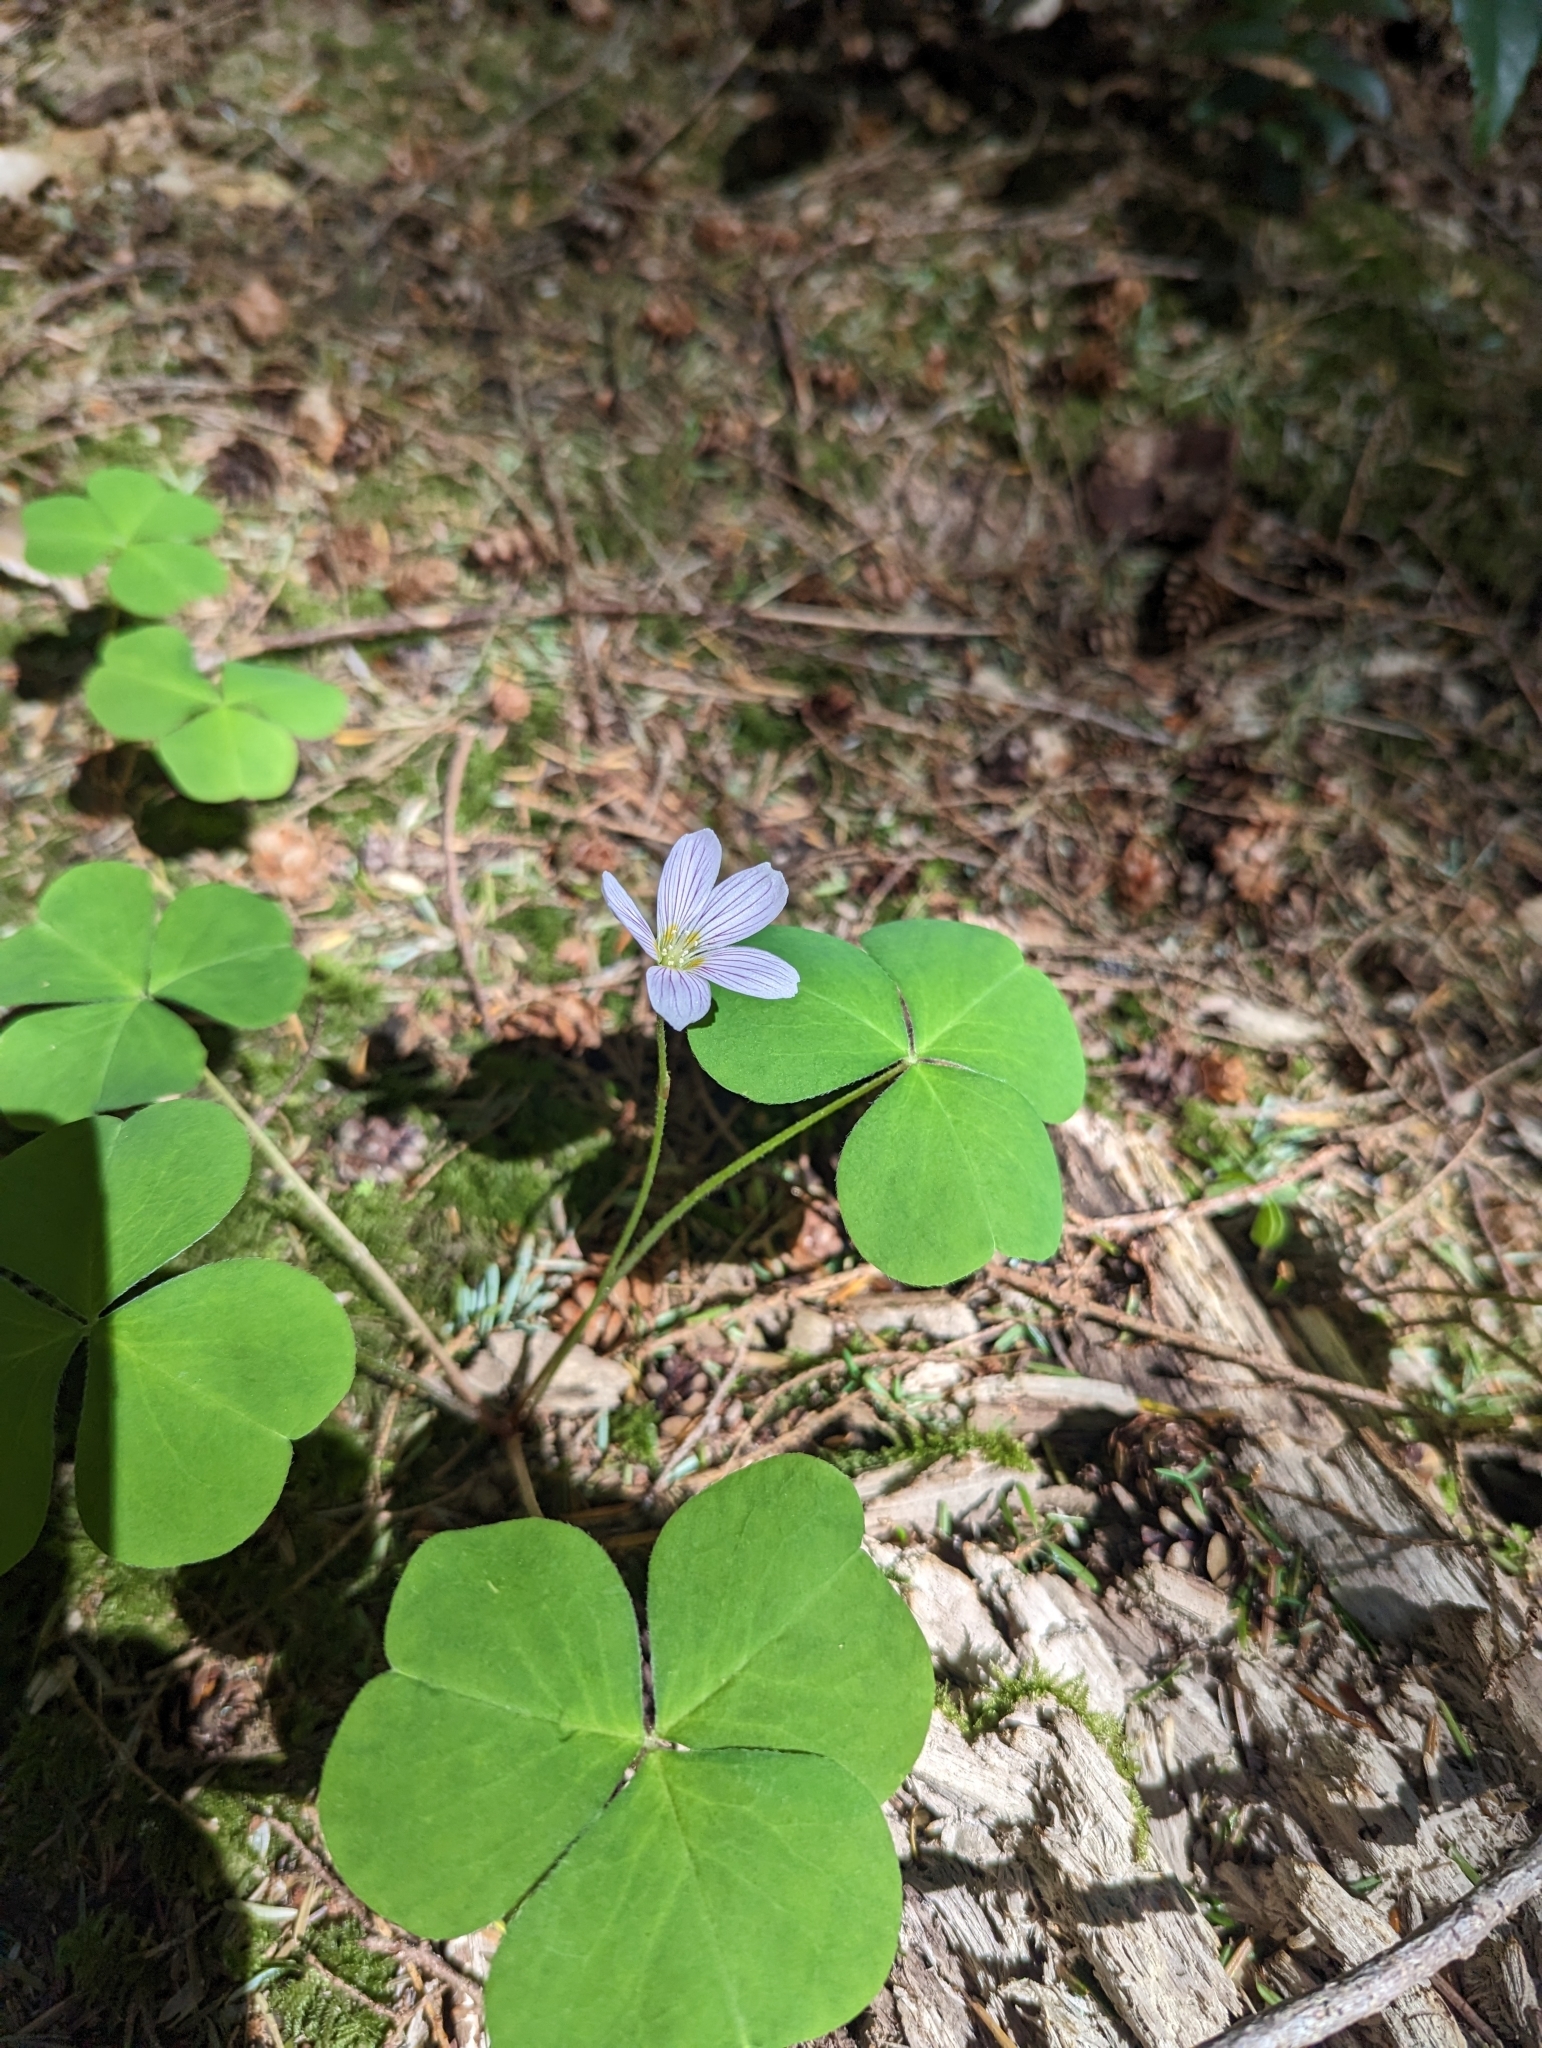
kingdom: Plantae
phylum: Tracheophyta
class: Magnoliopsida
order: Oxalidales
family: Oxalidaceae
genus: Oxalis
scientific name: Oxalis oregana
